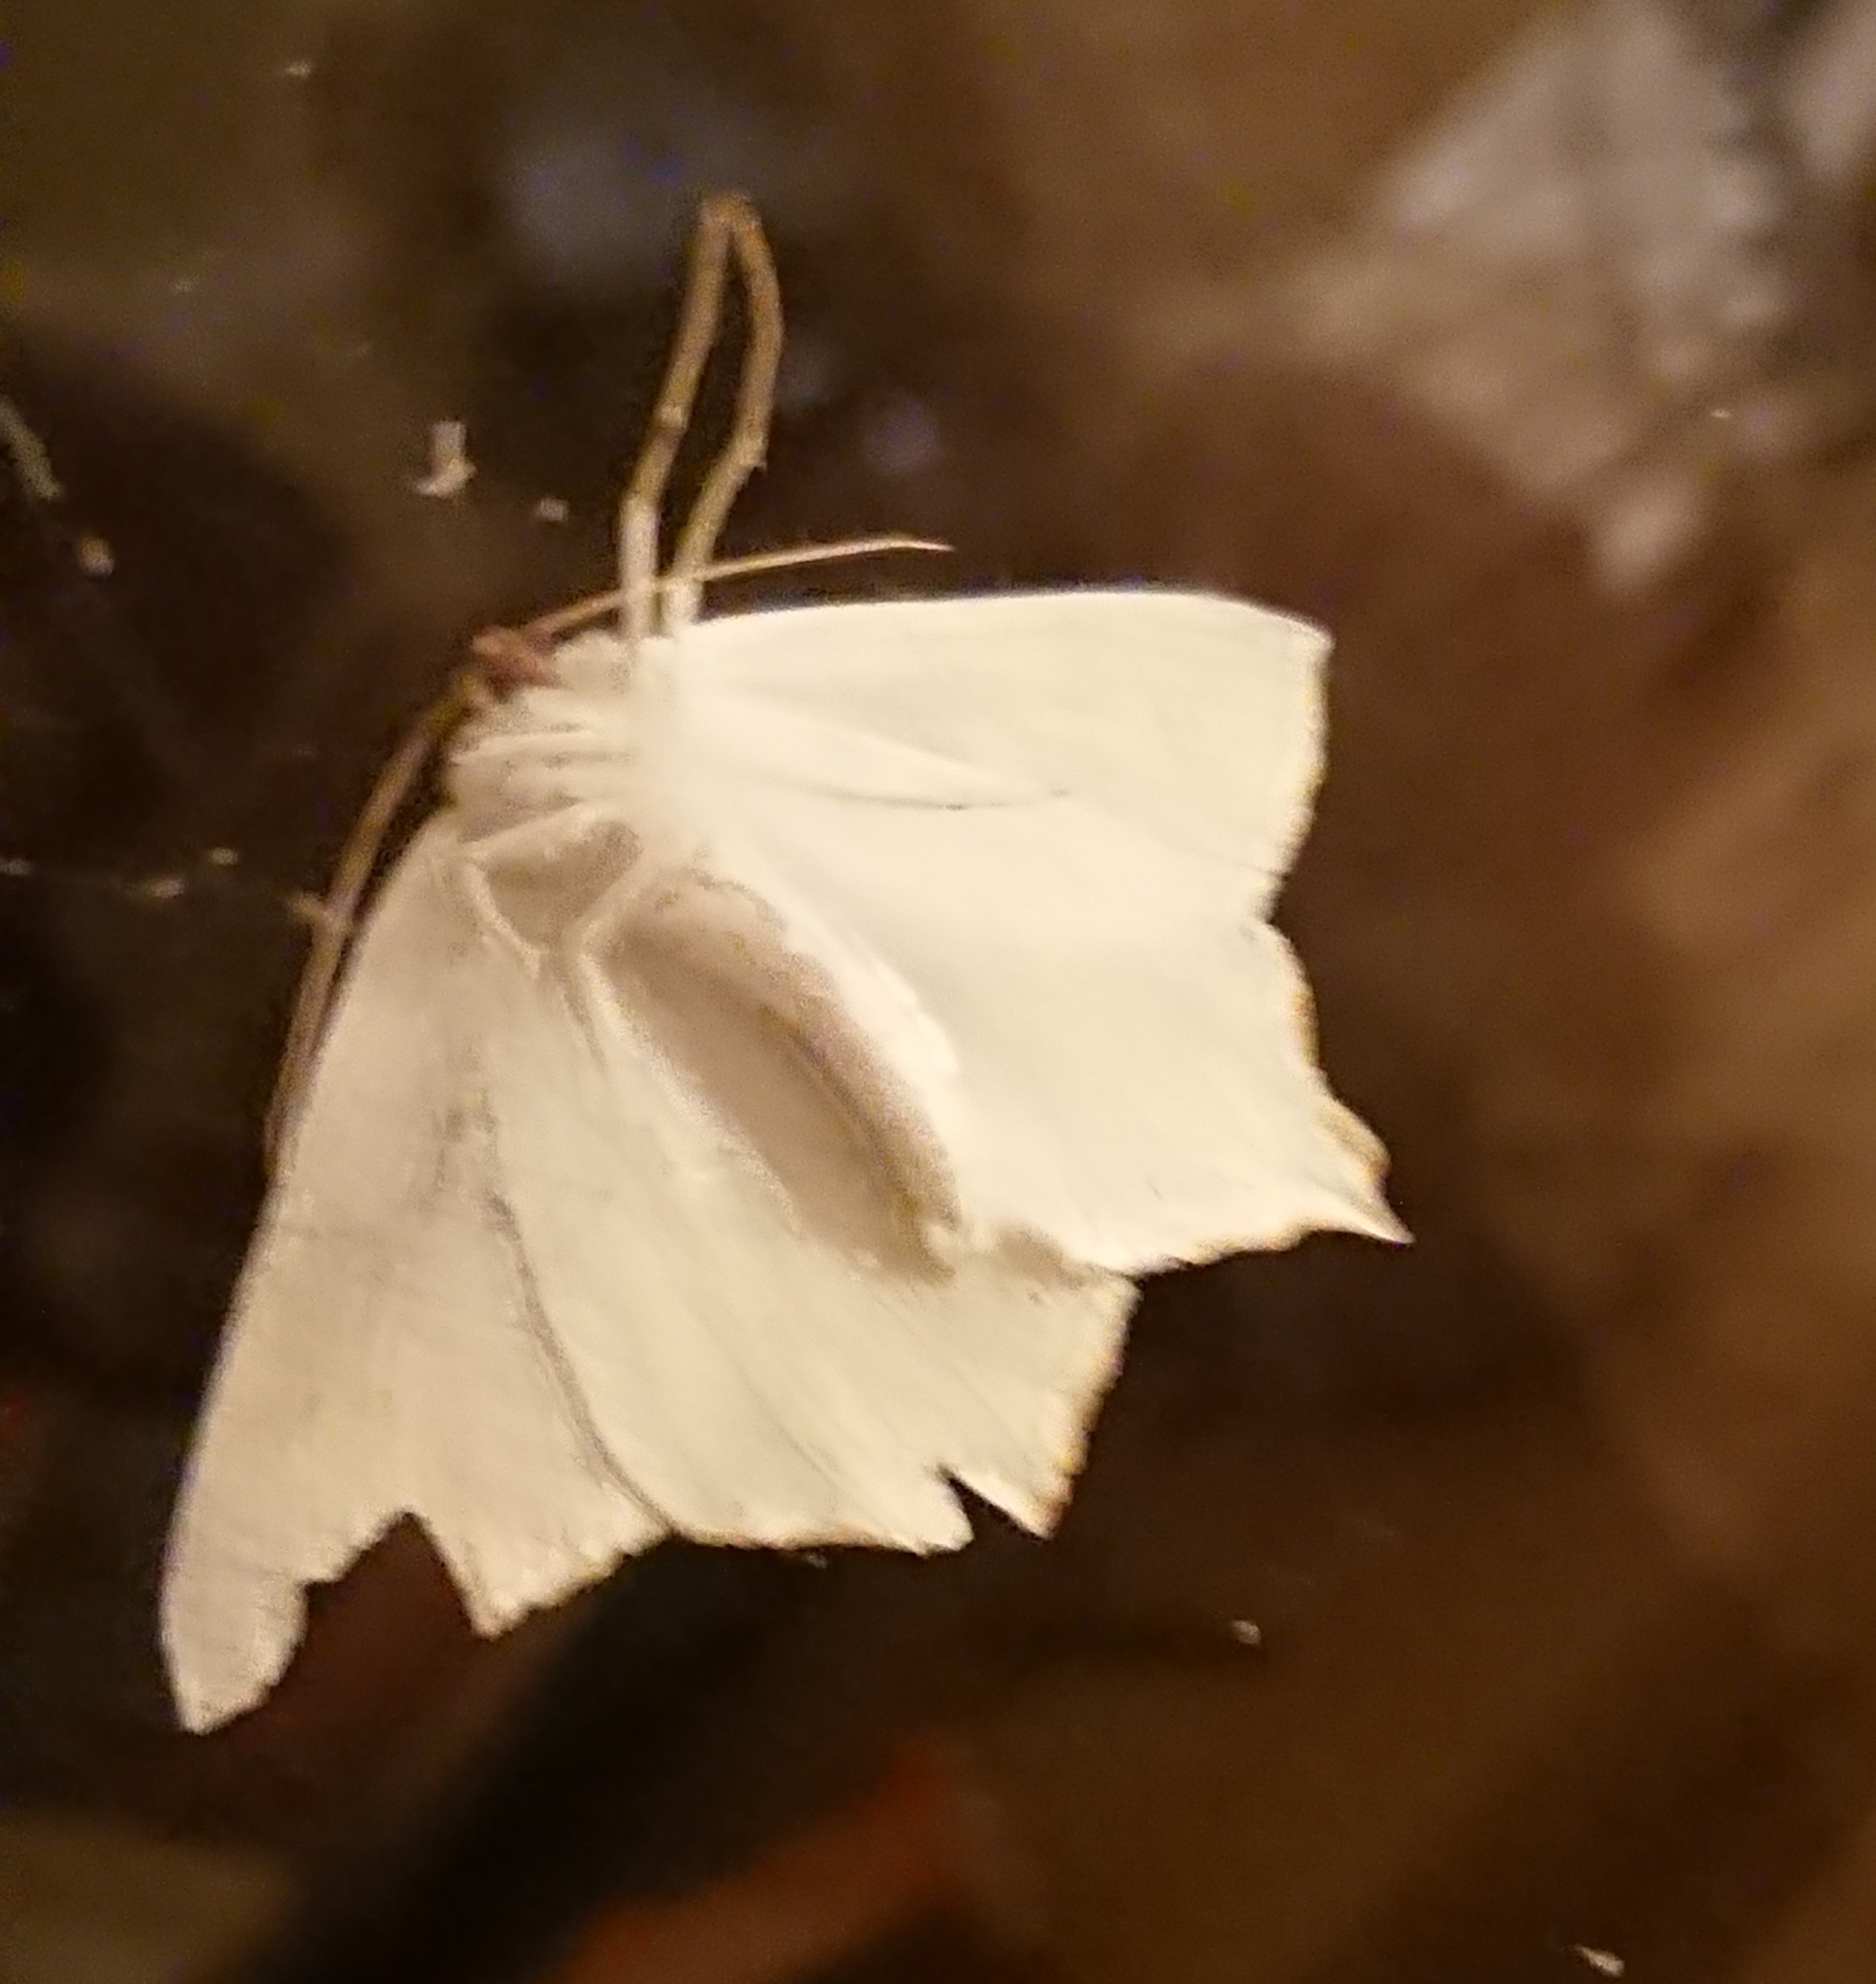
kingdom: Animalia
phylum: Arthropoda
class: Insecta
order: Lepidoptera
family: Geometridae
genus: Ourapteryx
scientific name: Ourapteryx sambucaria
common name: Swallow-tailed moth
